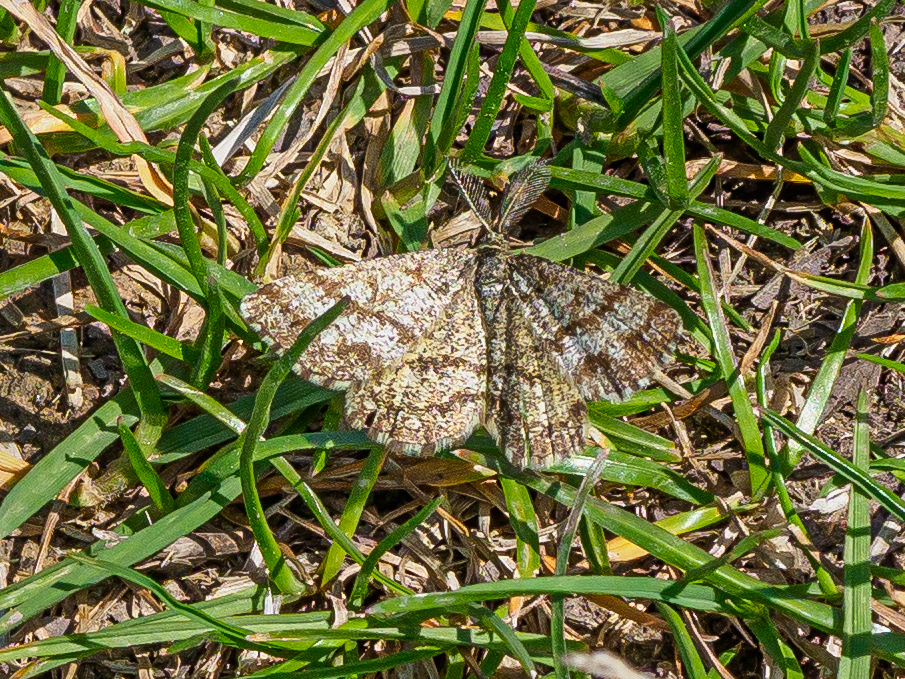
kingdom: Animalia
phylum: Arthropoda
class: Insecta
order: Lepidoptera
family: Geometridae
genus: Ematurga
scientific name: Ematurga atomaria
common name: Common heath
